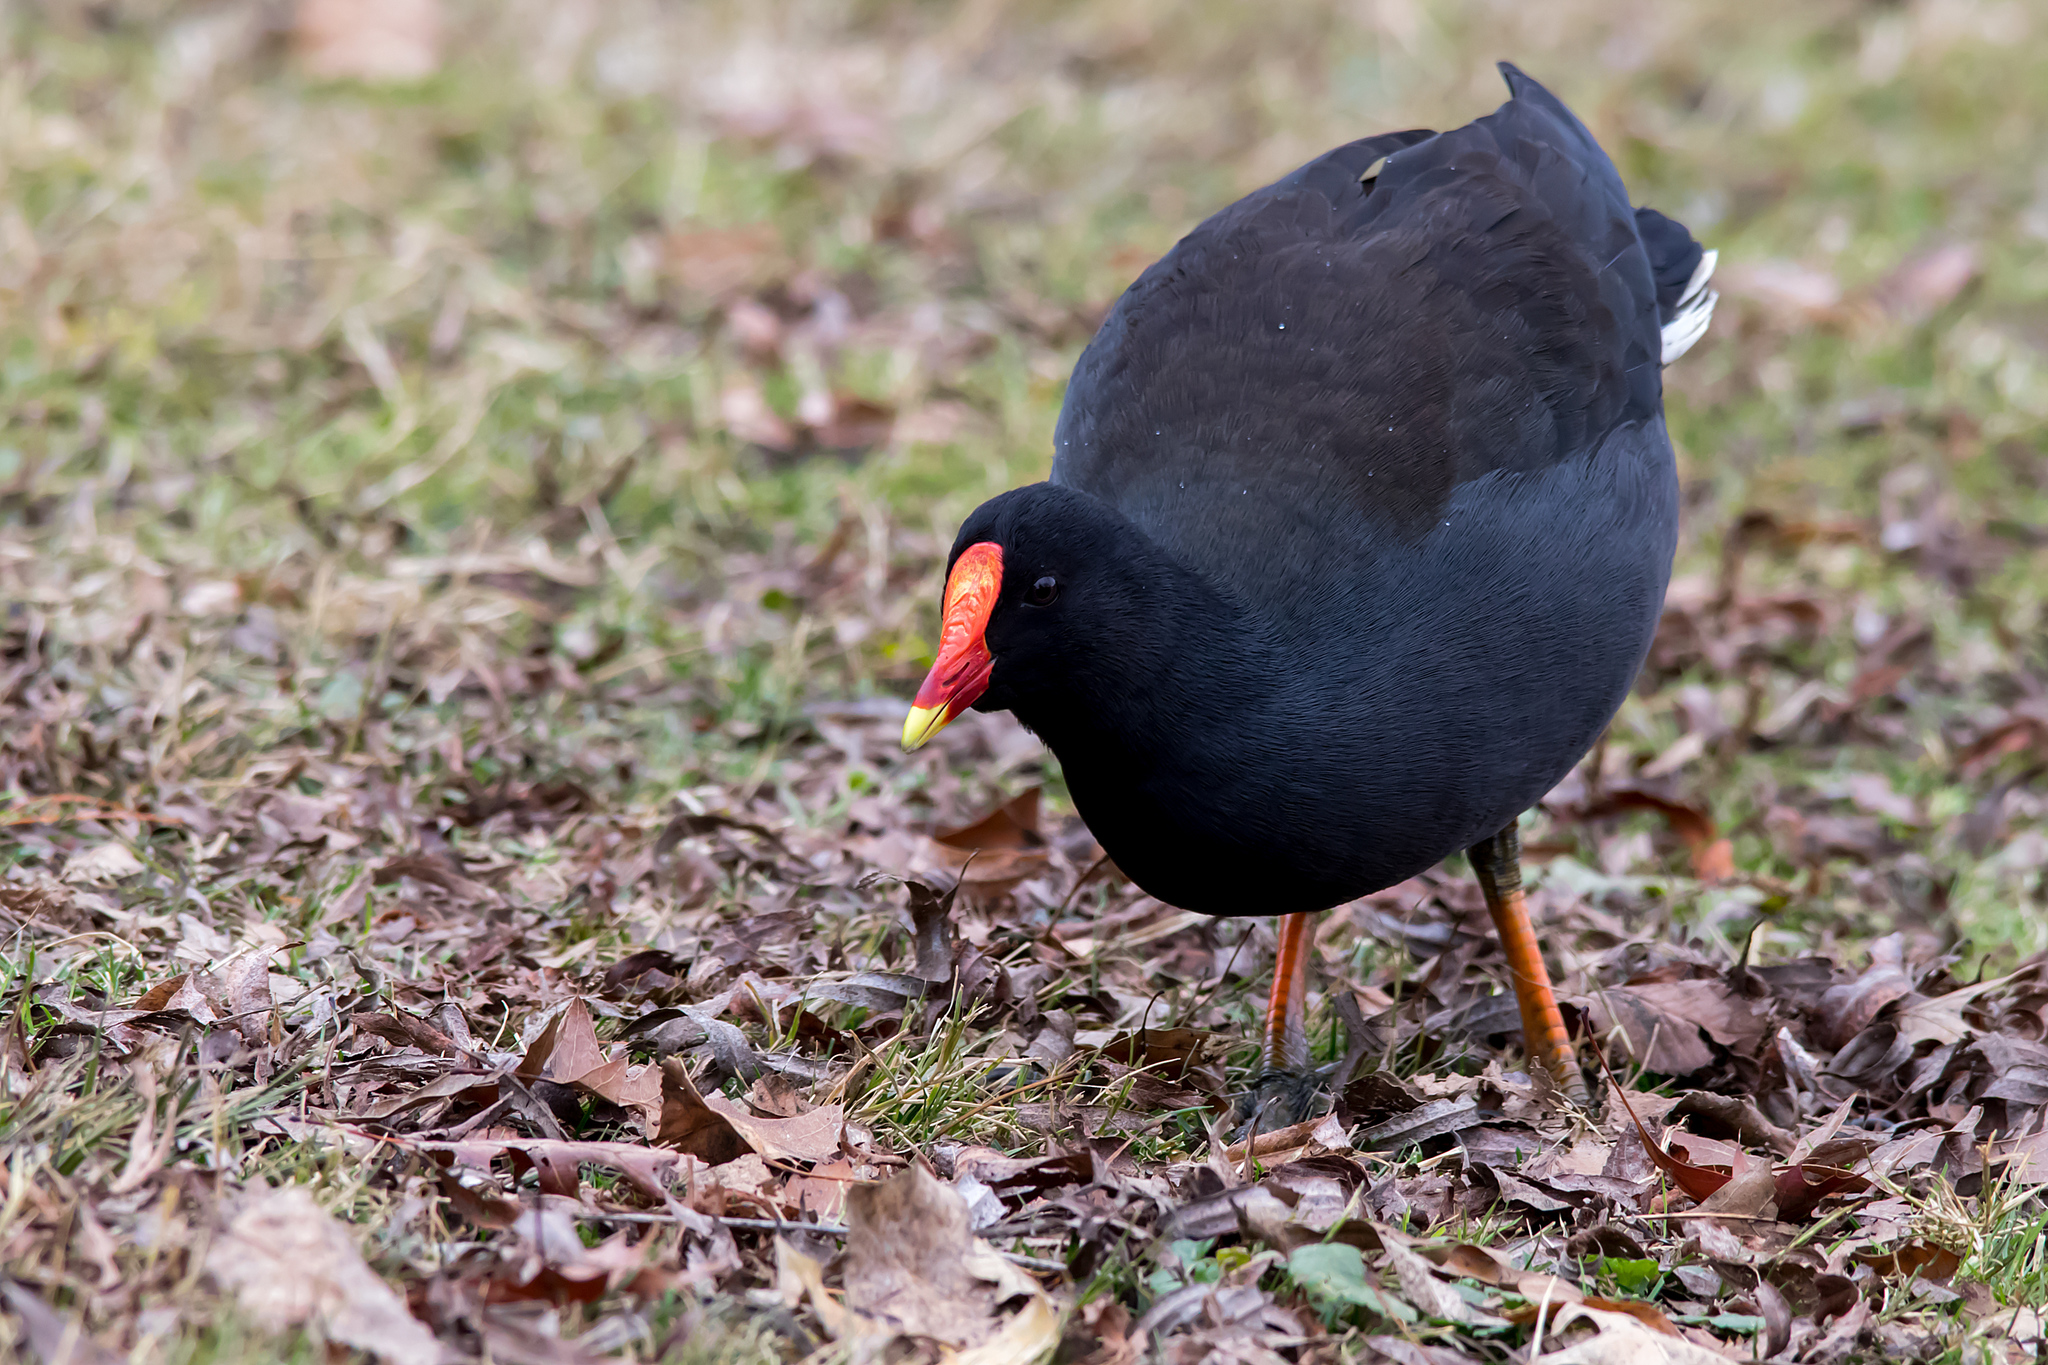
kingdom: Animalia
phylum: Chordata
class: Aves
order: Gruiformes
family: Rallidae
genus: Gallinula
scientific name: Gallinula tenebrosa
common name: Dusky moorhen
